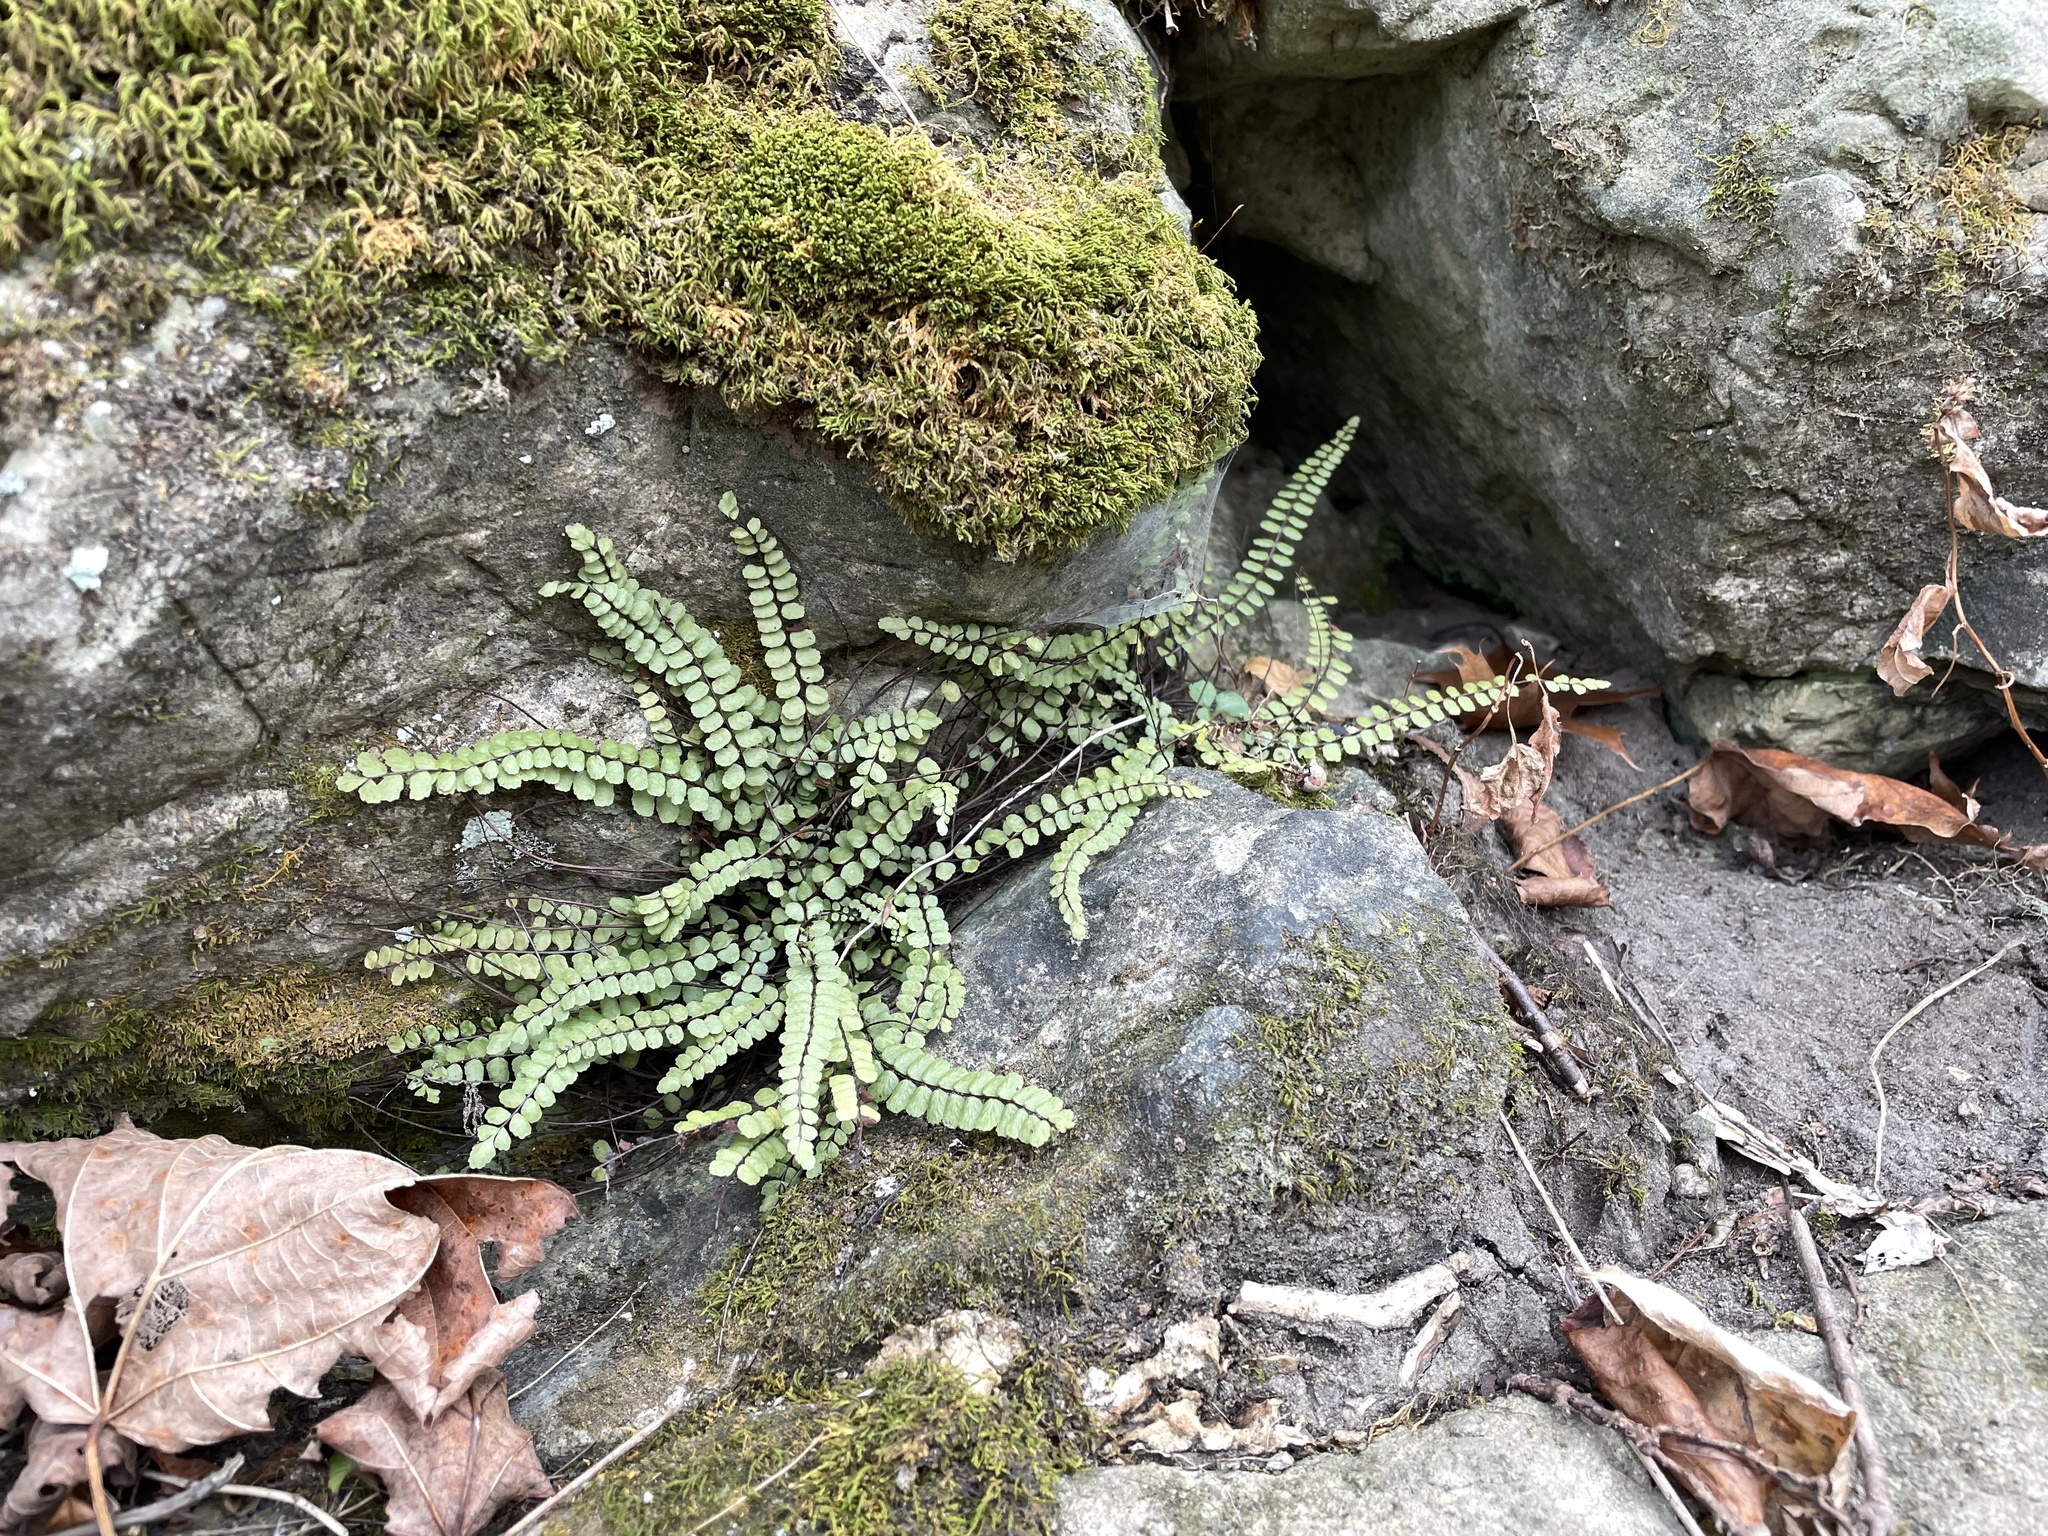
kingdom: Plantae
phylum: Tracheophyta
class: Polypodiopsida
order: Polypodiales
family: Aspleniaceae
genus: Asplenium
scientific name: Asplenium trichomanes
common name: Maidenhair spleenwort
